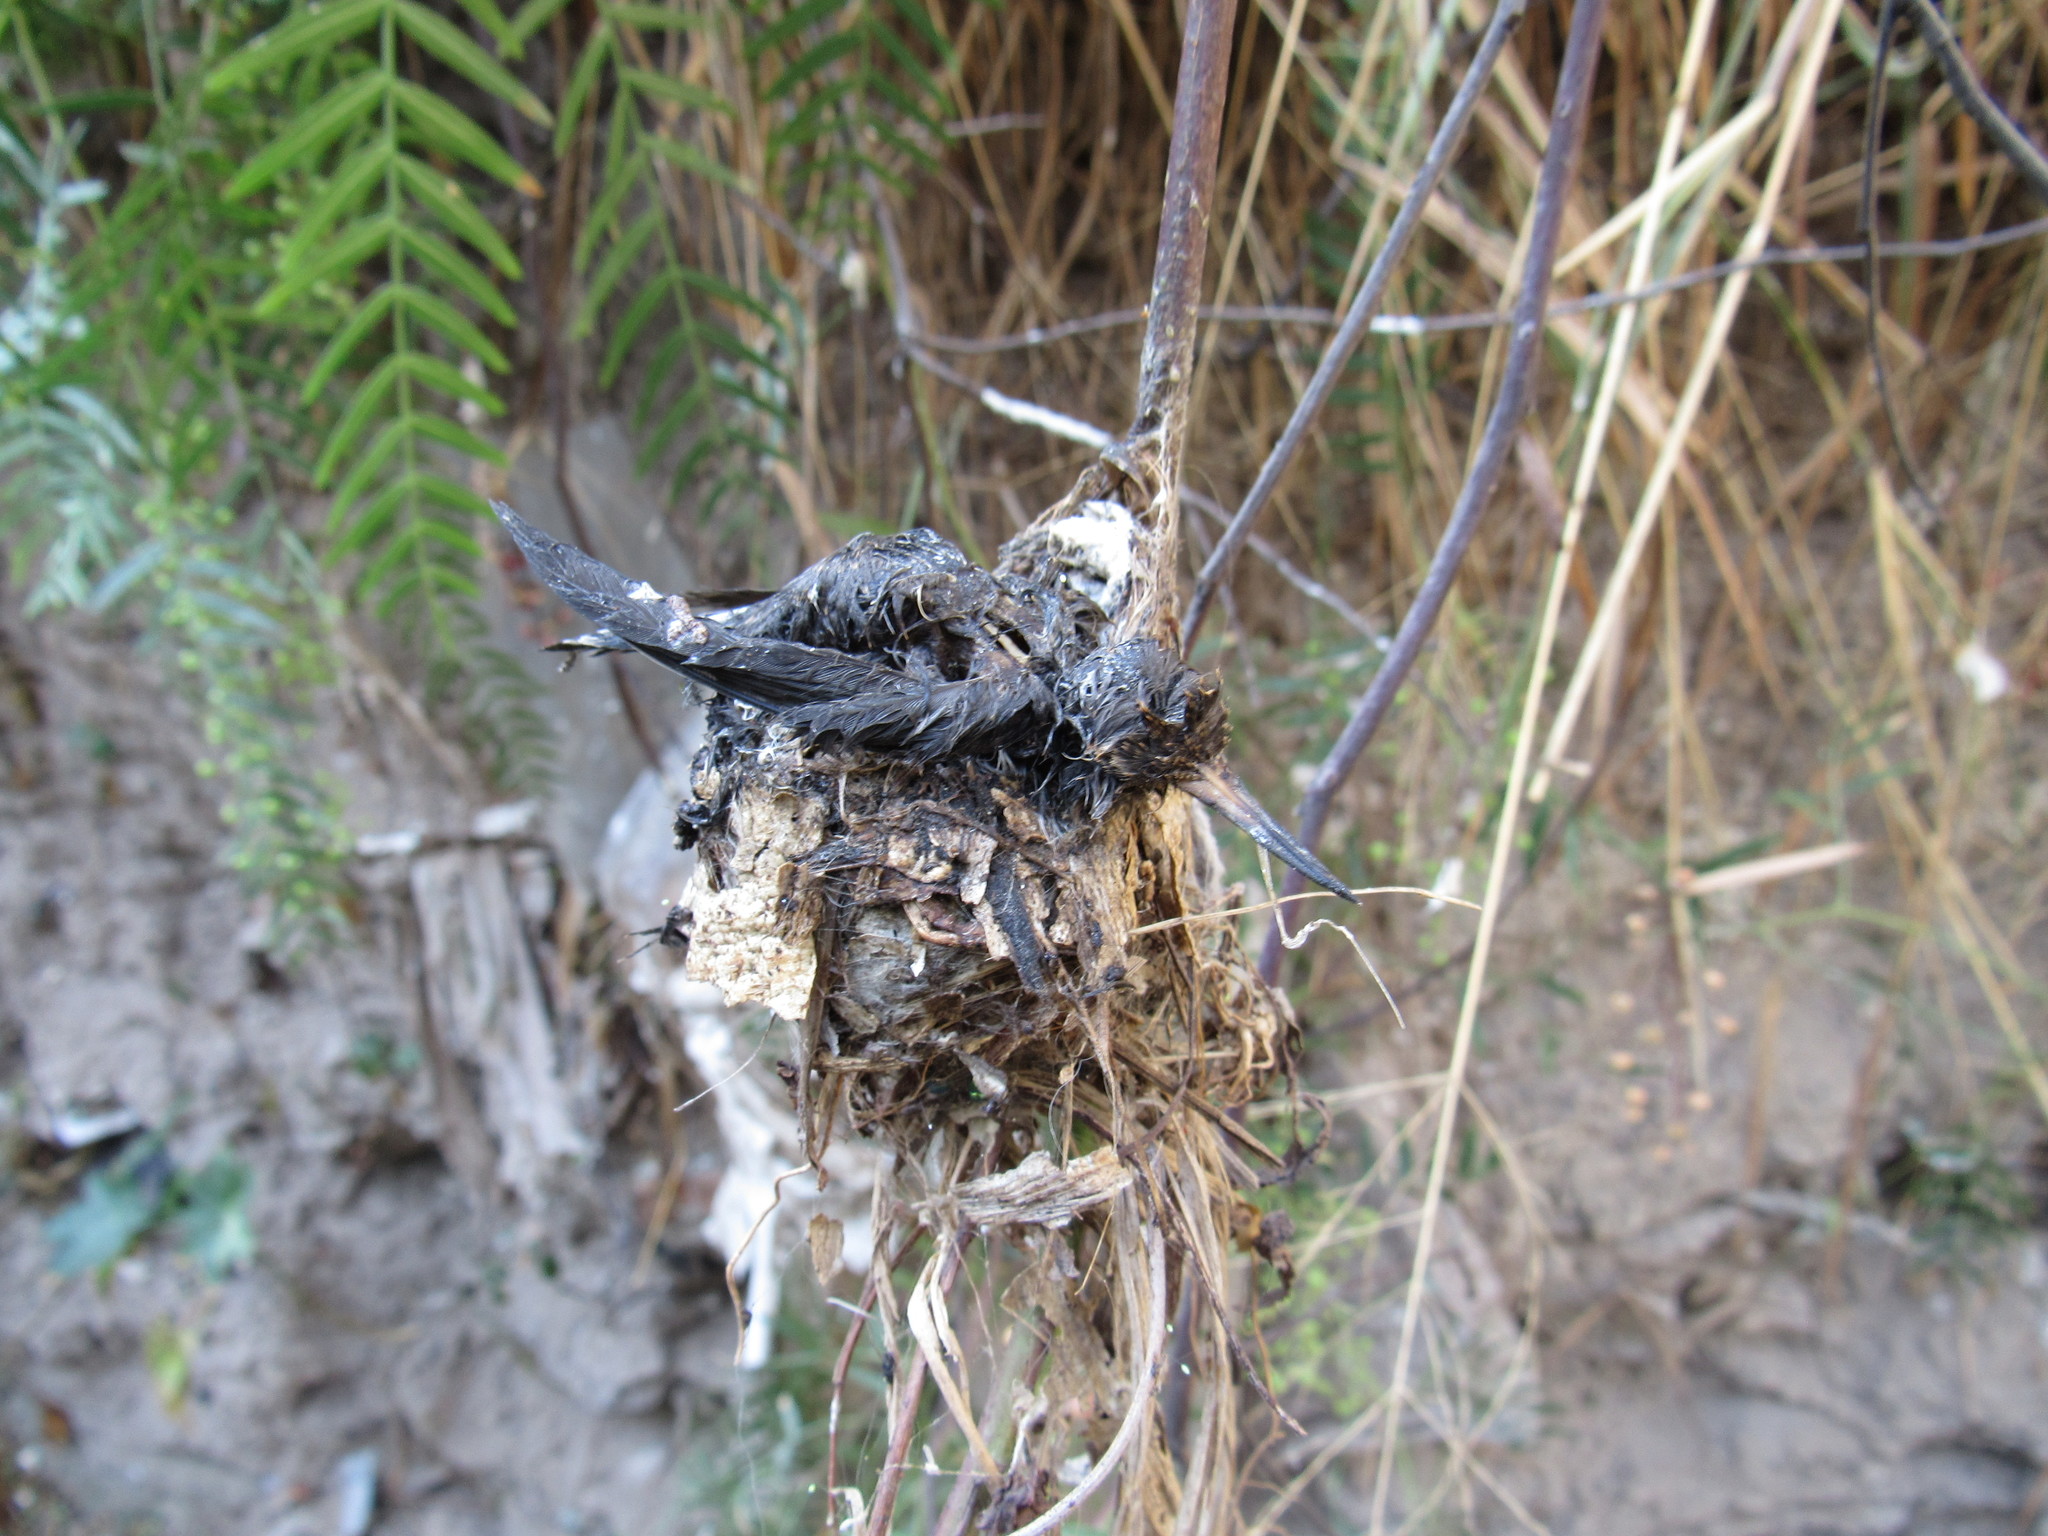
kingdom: Animalia
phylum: Chordata
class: Aves
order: Apodiformes
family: Trochilidae
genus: Cynanthus
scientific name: Cynanthus latirostris
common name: Broad-billed hummingbird
